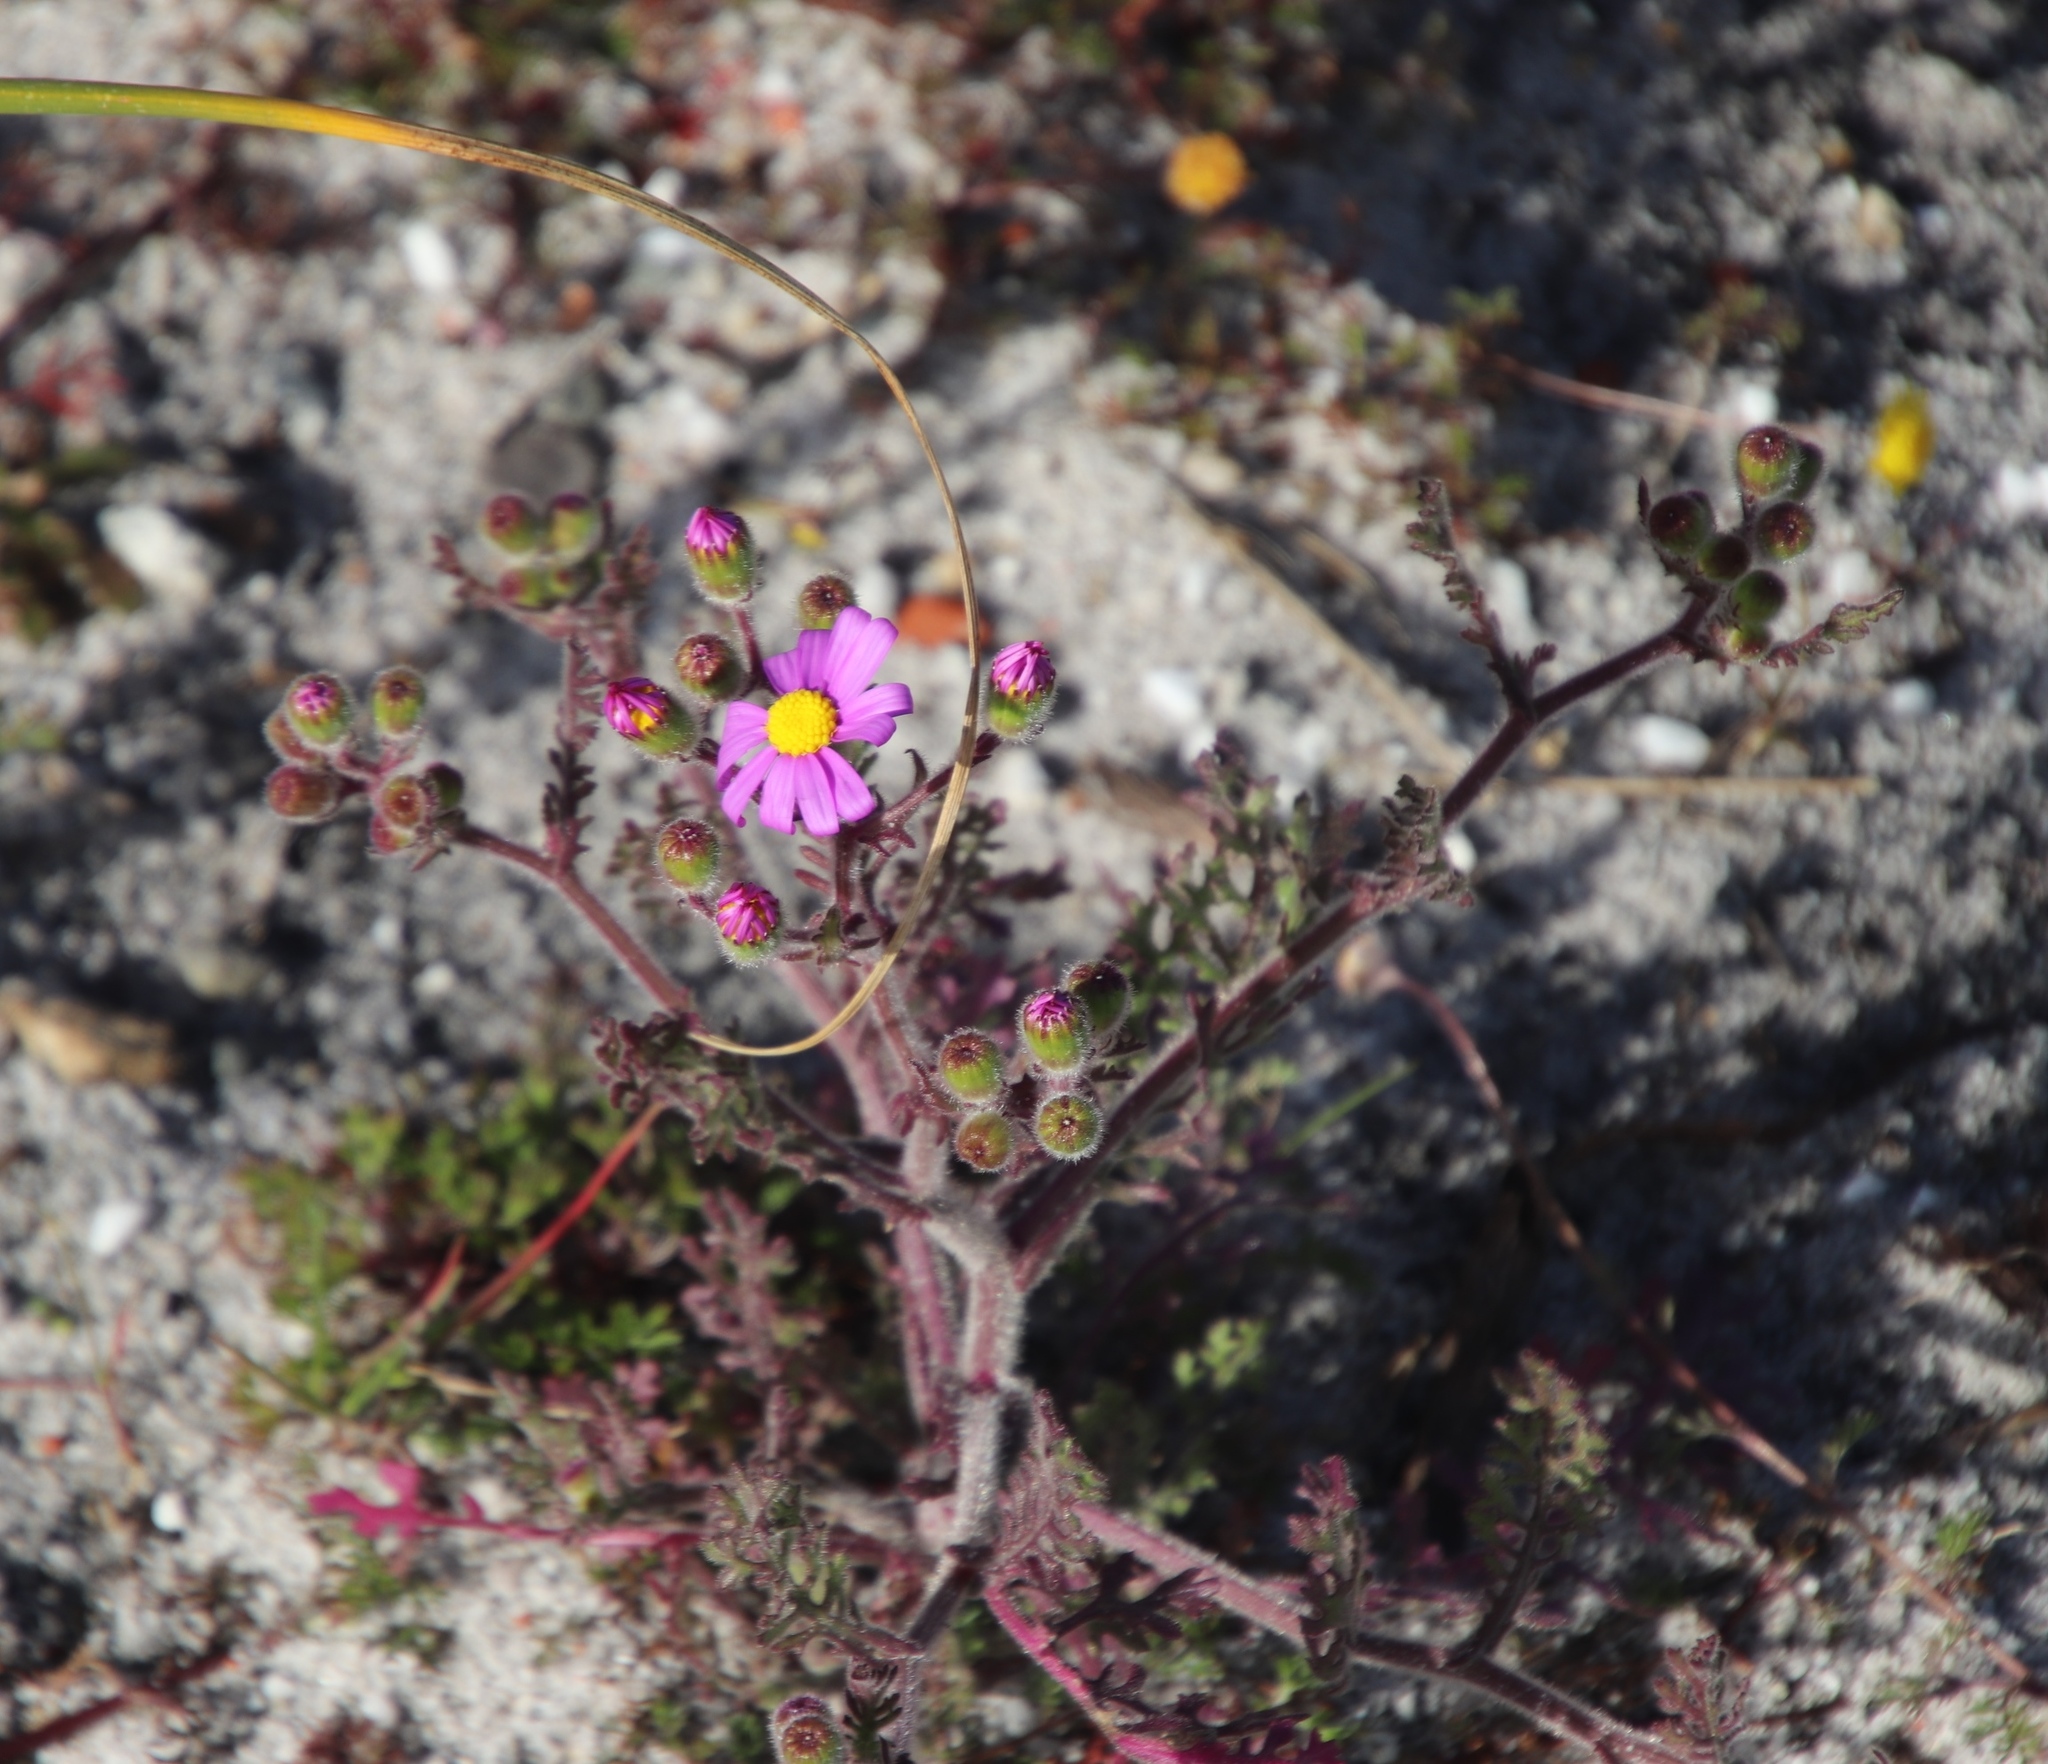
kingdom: Plantae
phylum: Tracheophyta
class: Magnoliopsida
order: Asterales
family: Asteraceae
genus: Senecio
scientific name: Senecio arenarius
